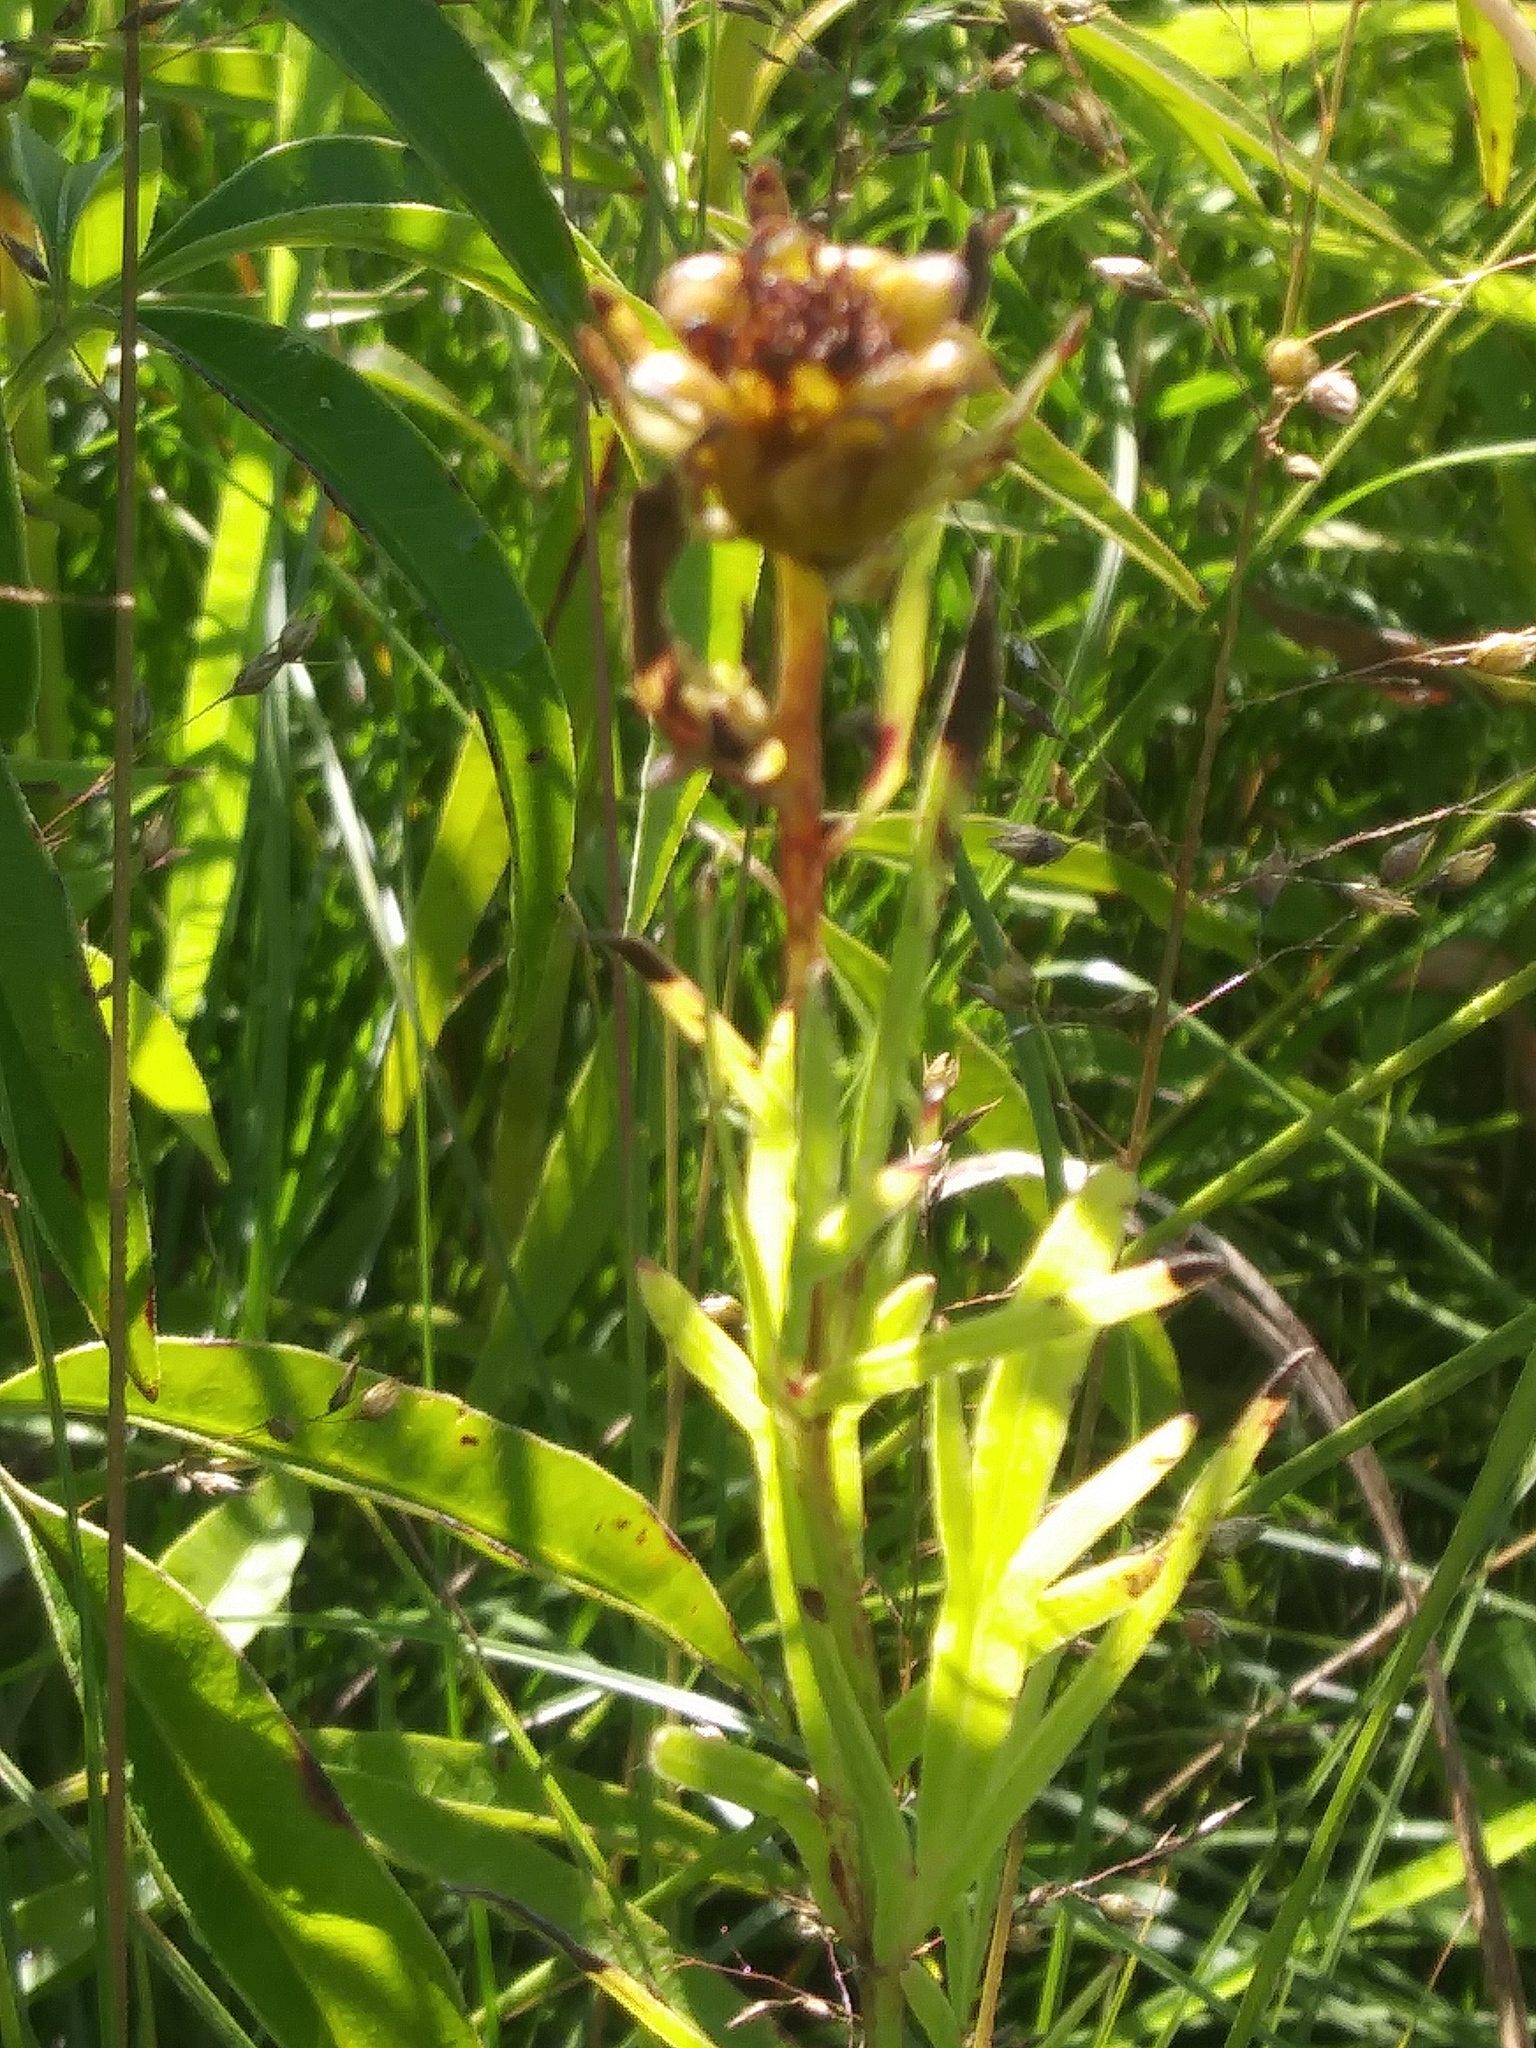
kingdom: Plantae
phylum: Tracheophyta
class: Magnoliopsida
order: Asterales
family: Asteraceae
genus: Coreopsis
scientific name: Coreopsis palmata
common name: Prairie coreopsis
